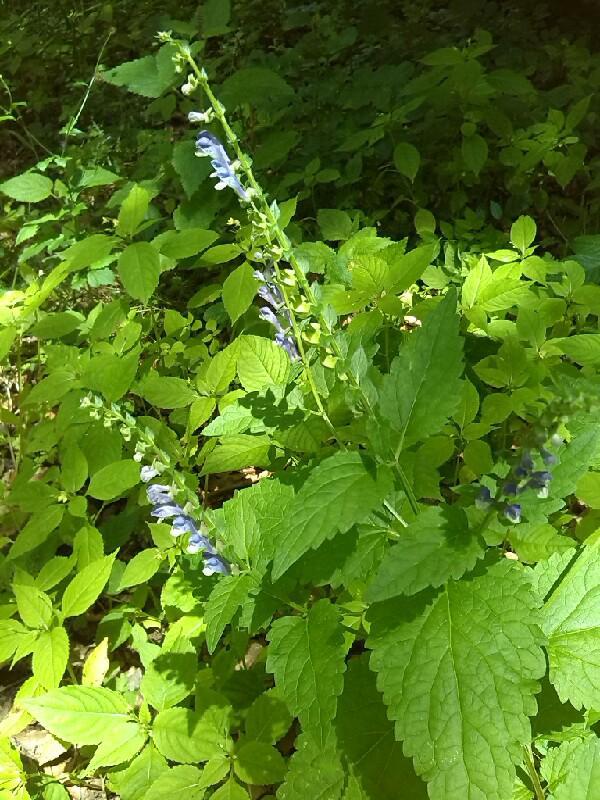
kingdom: Plantae
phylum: Tracheophyta
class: Magnoliopsida
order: Lamiales
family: Lamiaceae
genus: Scutellaria
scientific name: Scutellaria altissima
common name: Somerset skullcap
